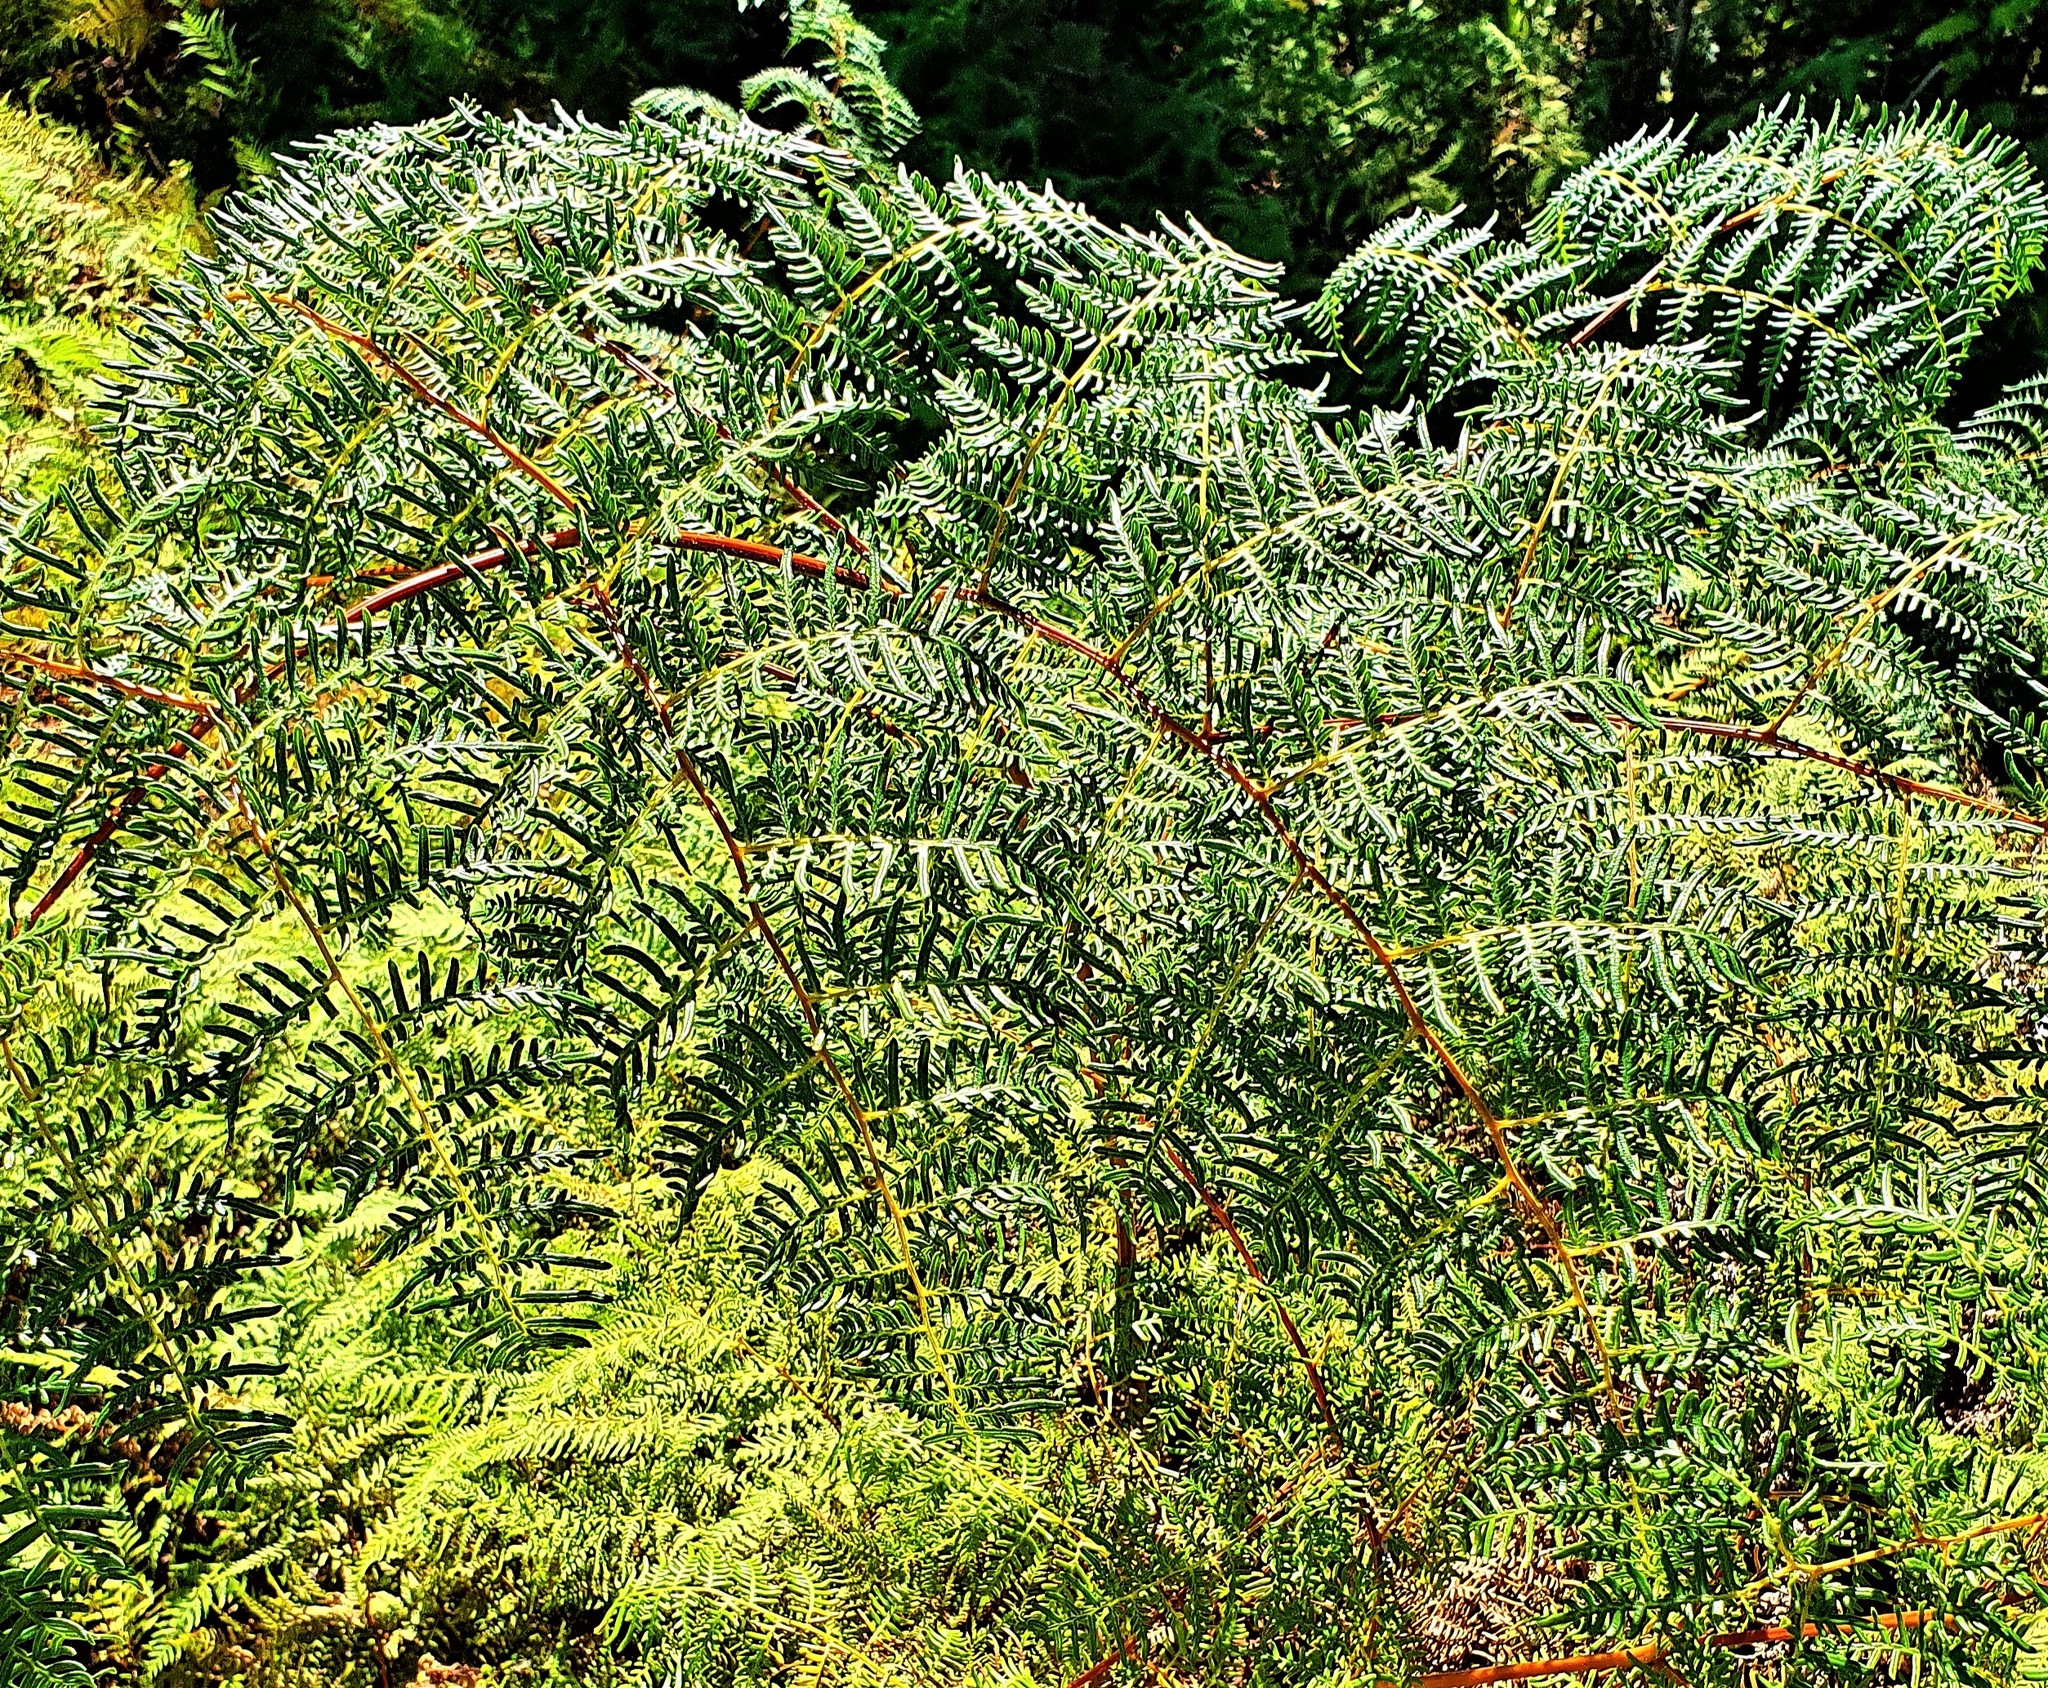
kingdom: Plantae
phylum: Tracheophyta
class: Polypodiopsida
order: Polypodiales
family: Dennstaedtiaceae
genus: Pteridium
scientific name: Pteridium esculentum
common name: Bracken fern
